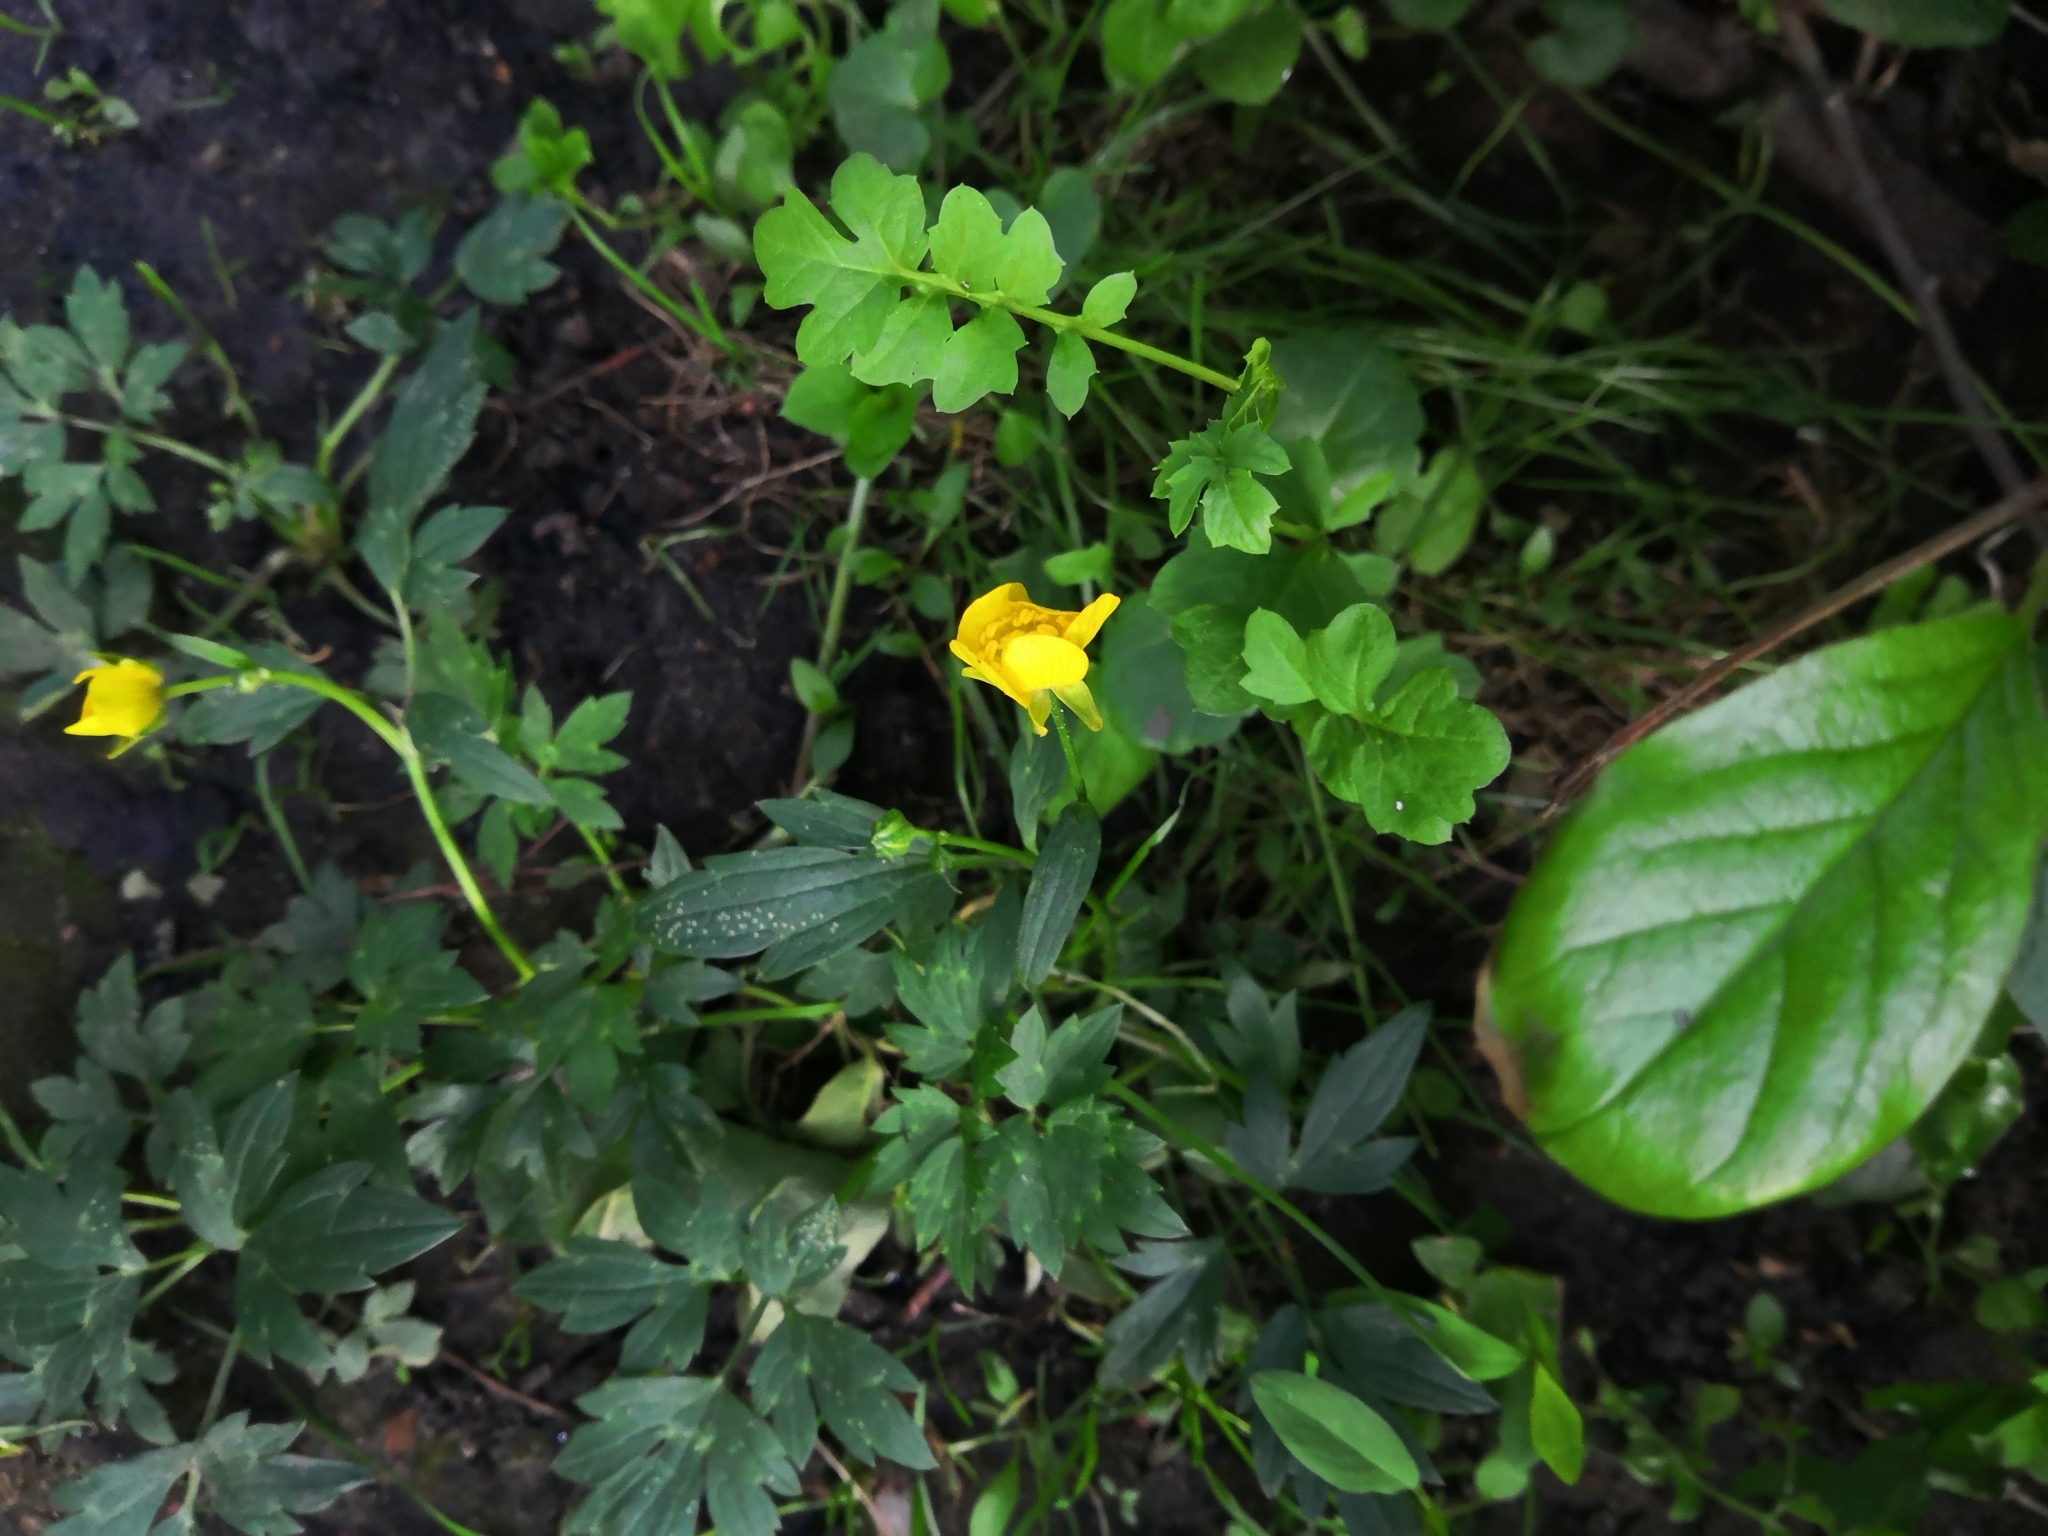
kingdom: Plantae
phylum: Tracheophyta
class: Magnoliopsida
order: Ranunculales
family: Ranunculaceae
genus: Ranunculus
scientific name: Ranunculus repens
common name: Creeping buttercup
